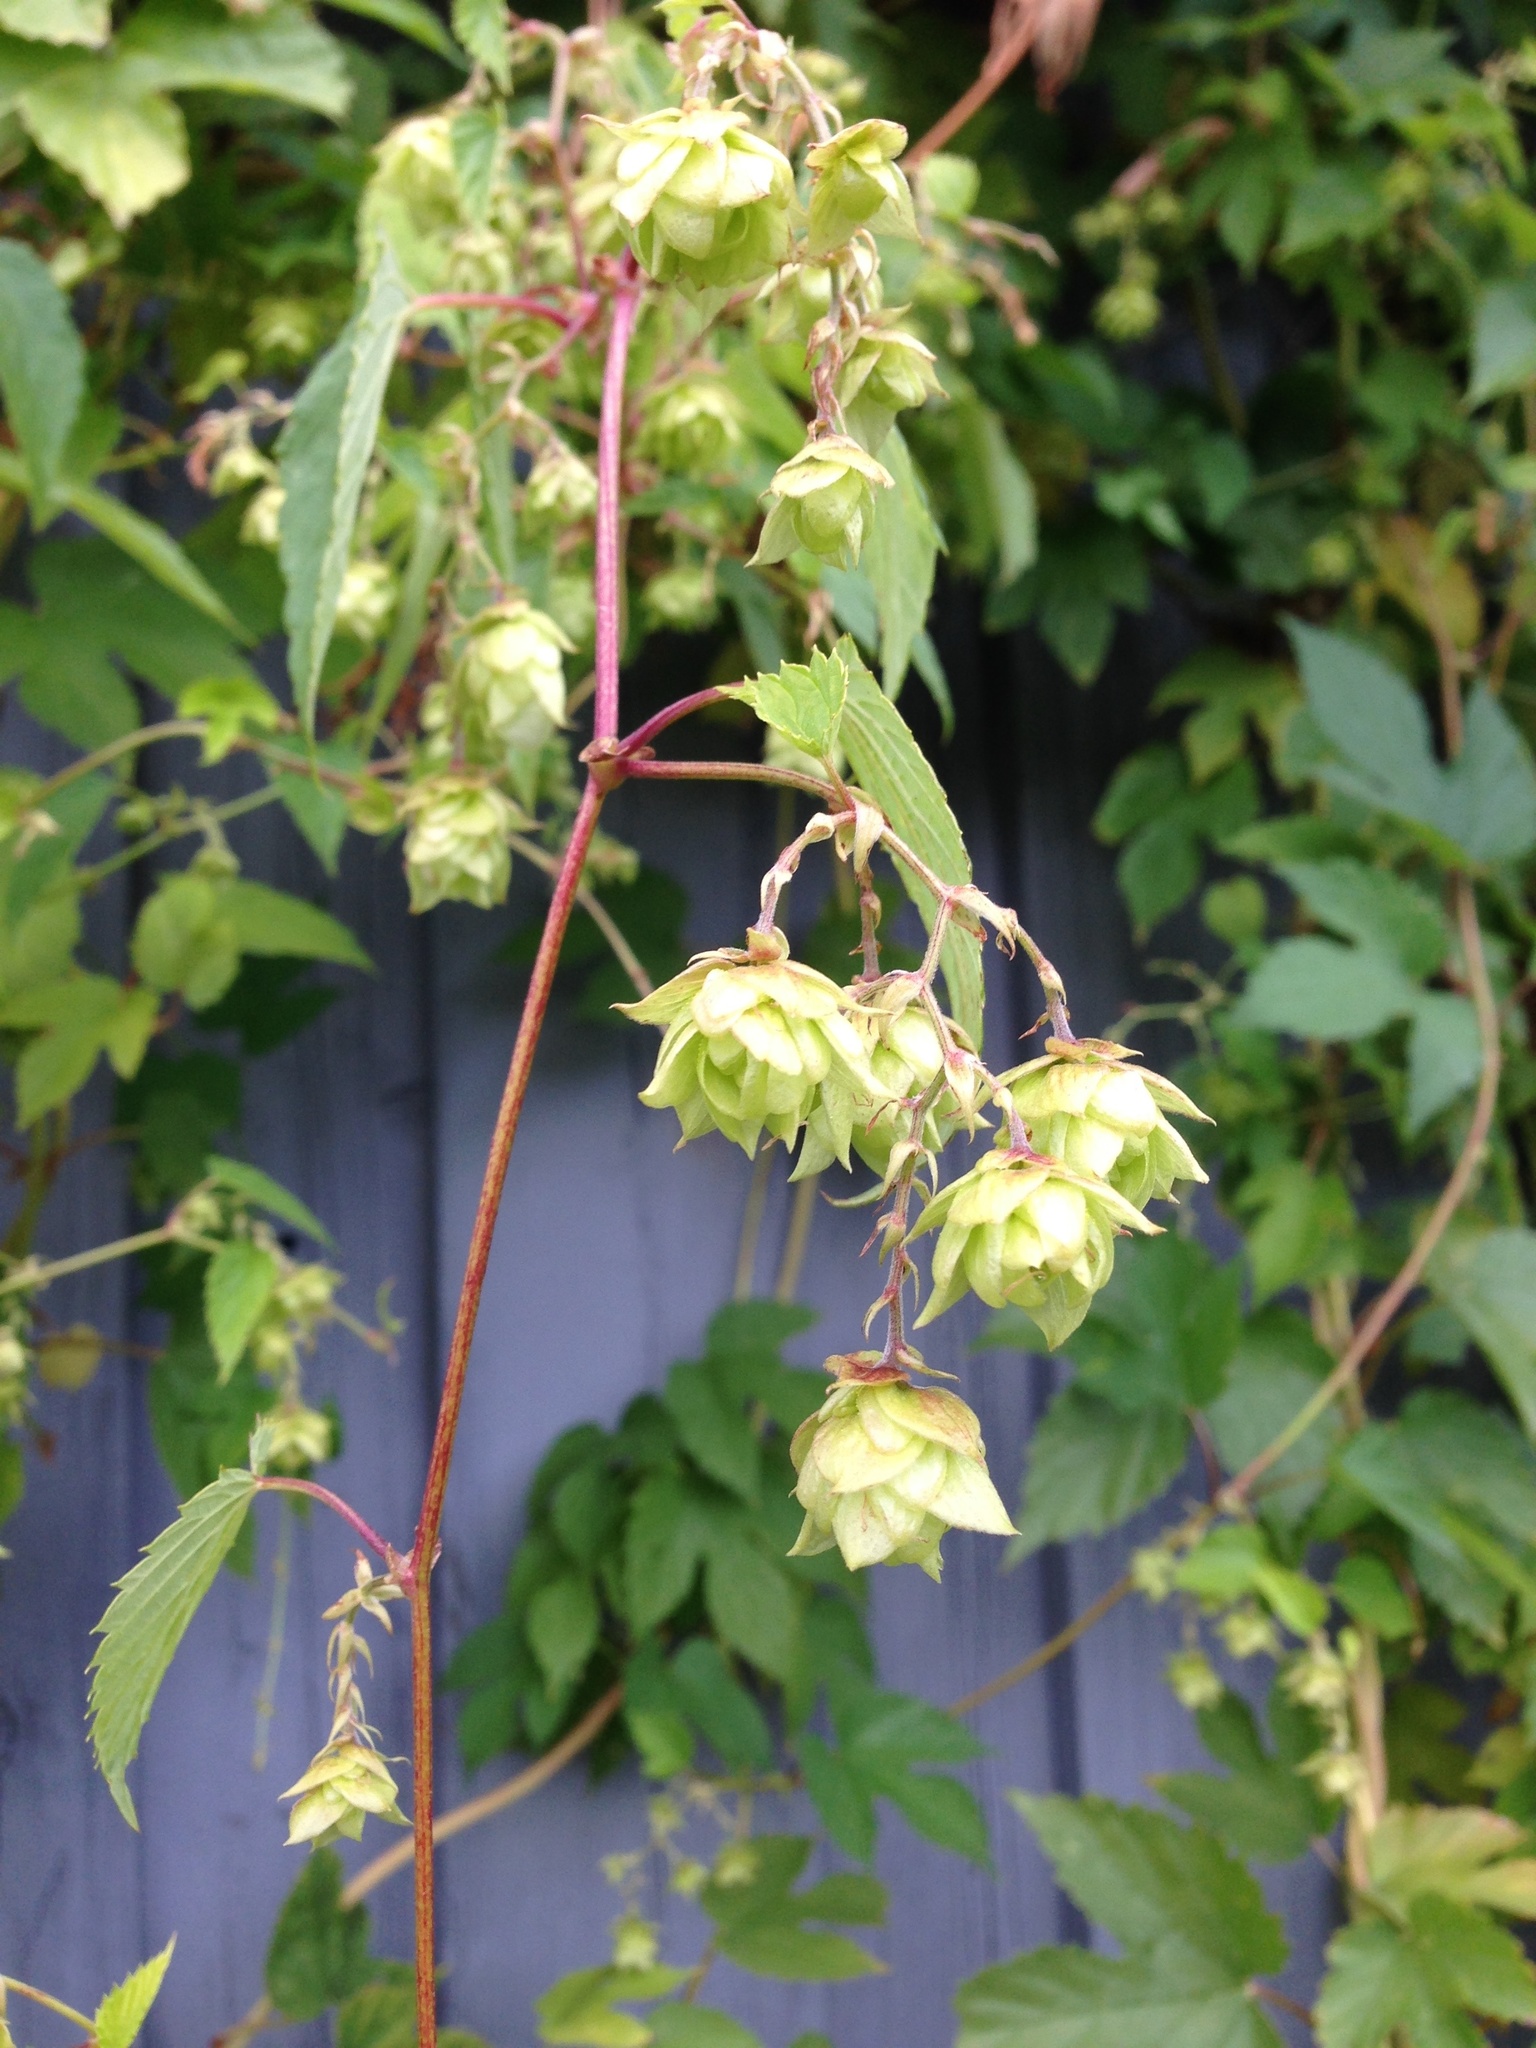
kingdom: Plantae
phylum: Tracheophyta
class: Magnoliopsida
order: Rosales
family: Cannabaceae
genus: Humulus
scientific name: Humulus lupulus
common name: Hop
